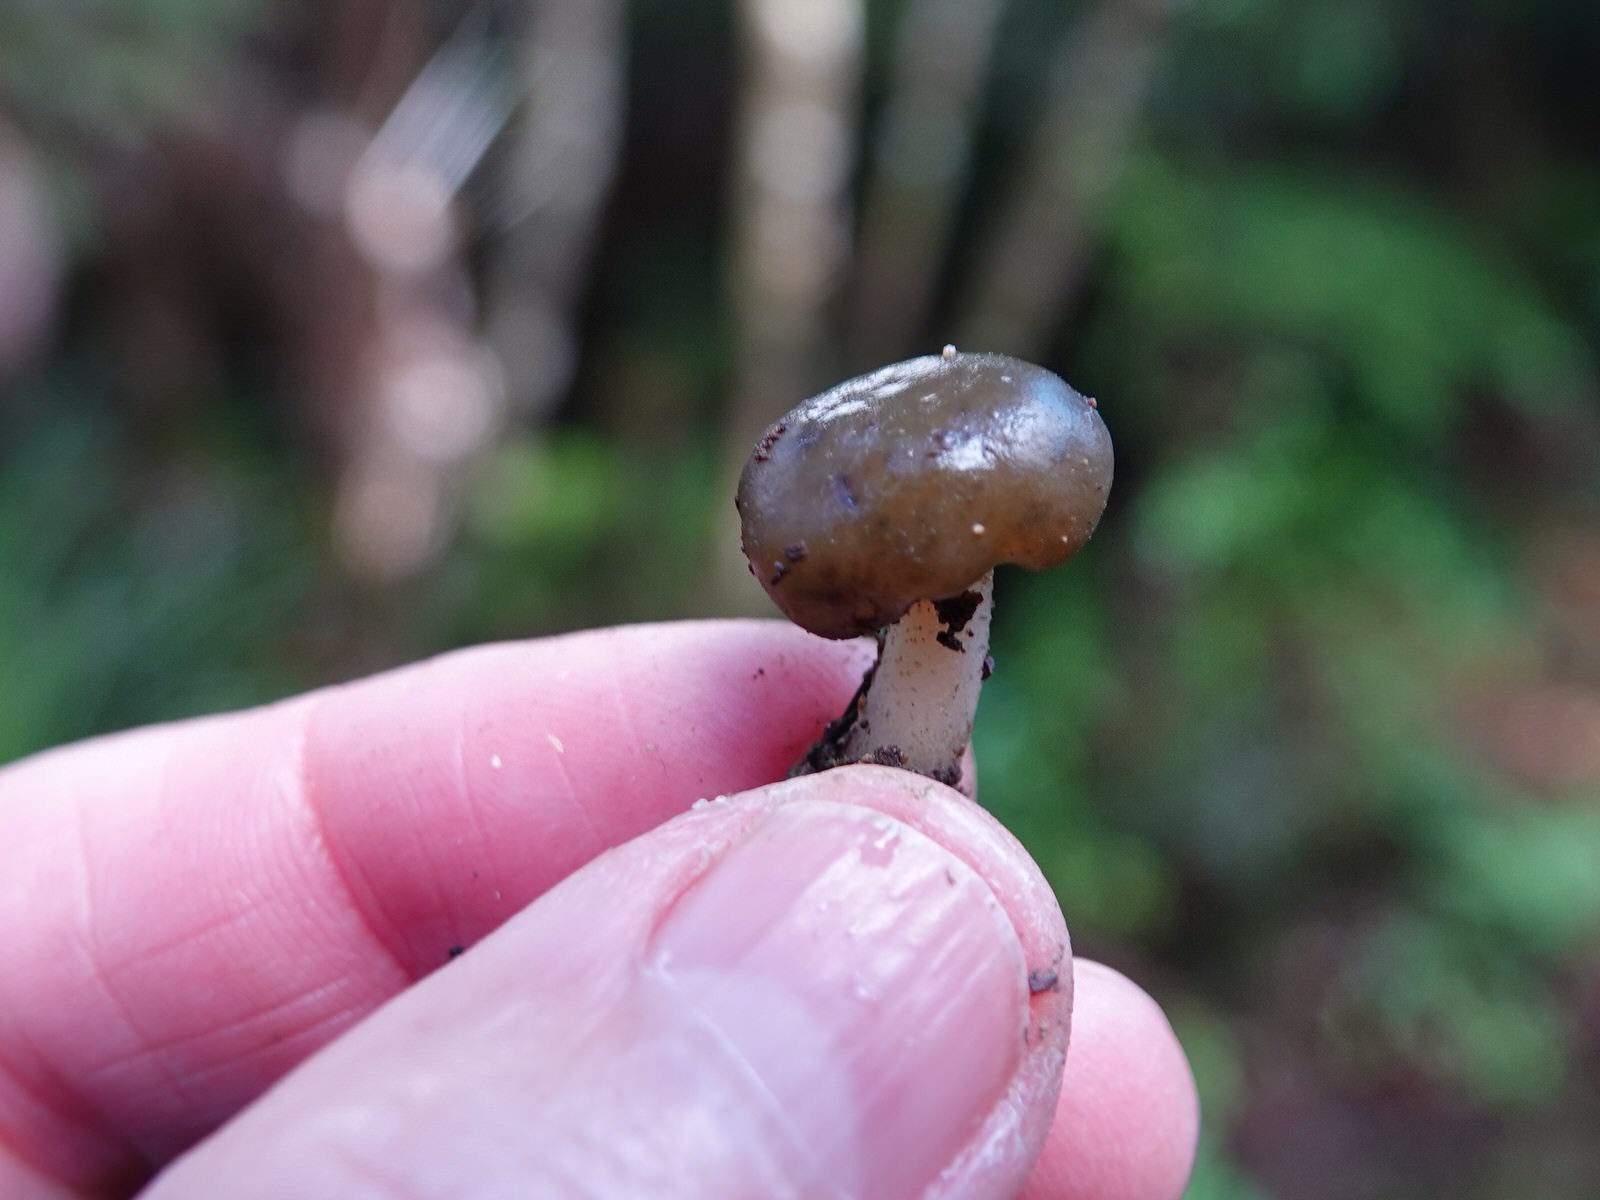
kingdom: Fungi
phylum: Ascomycota
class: Leotiomycetes
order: Leotiales
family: Leotiaceae
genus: Leotia
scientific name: Leotia lubrica
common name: Jellybaby
